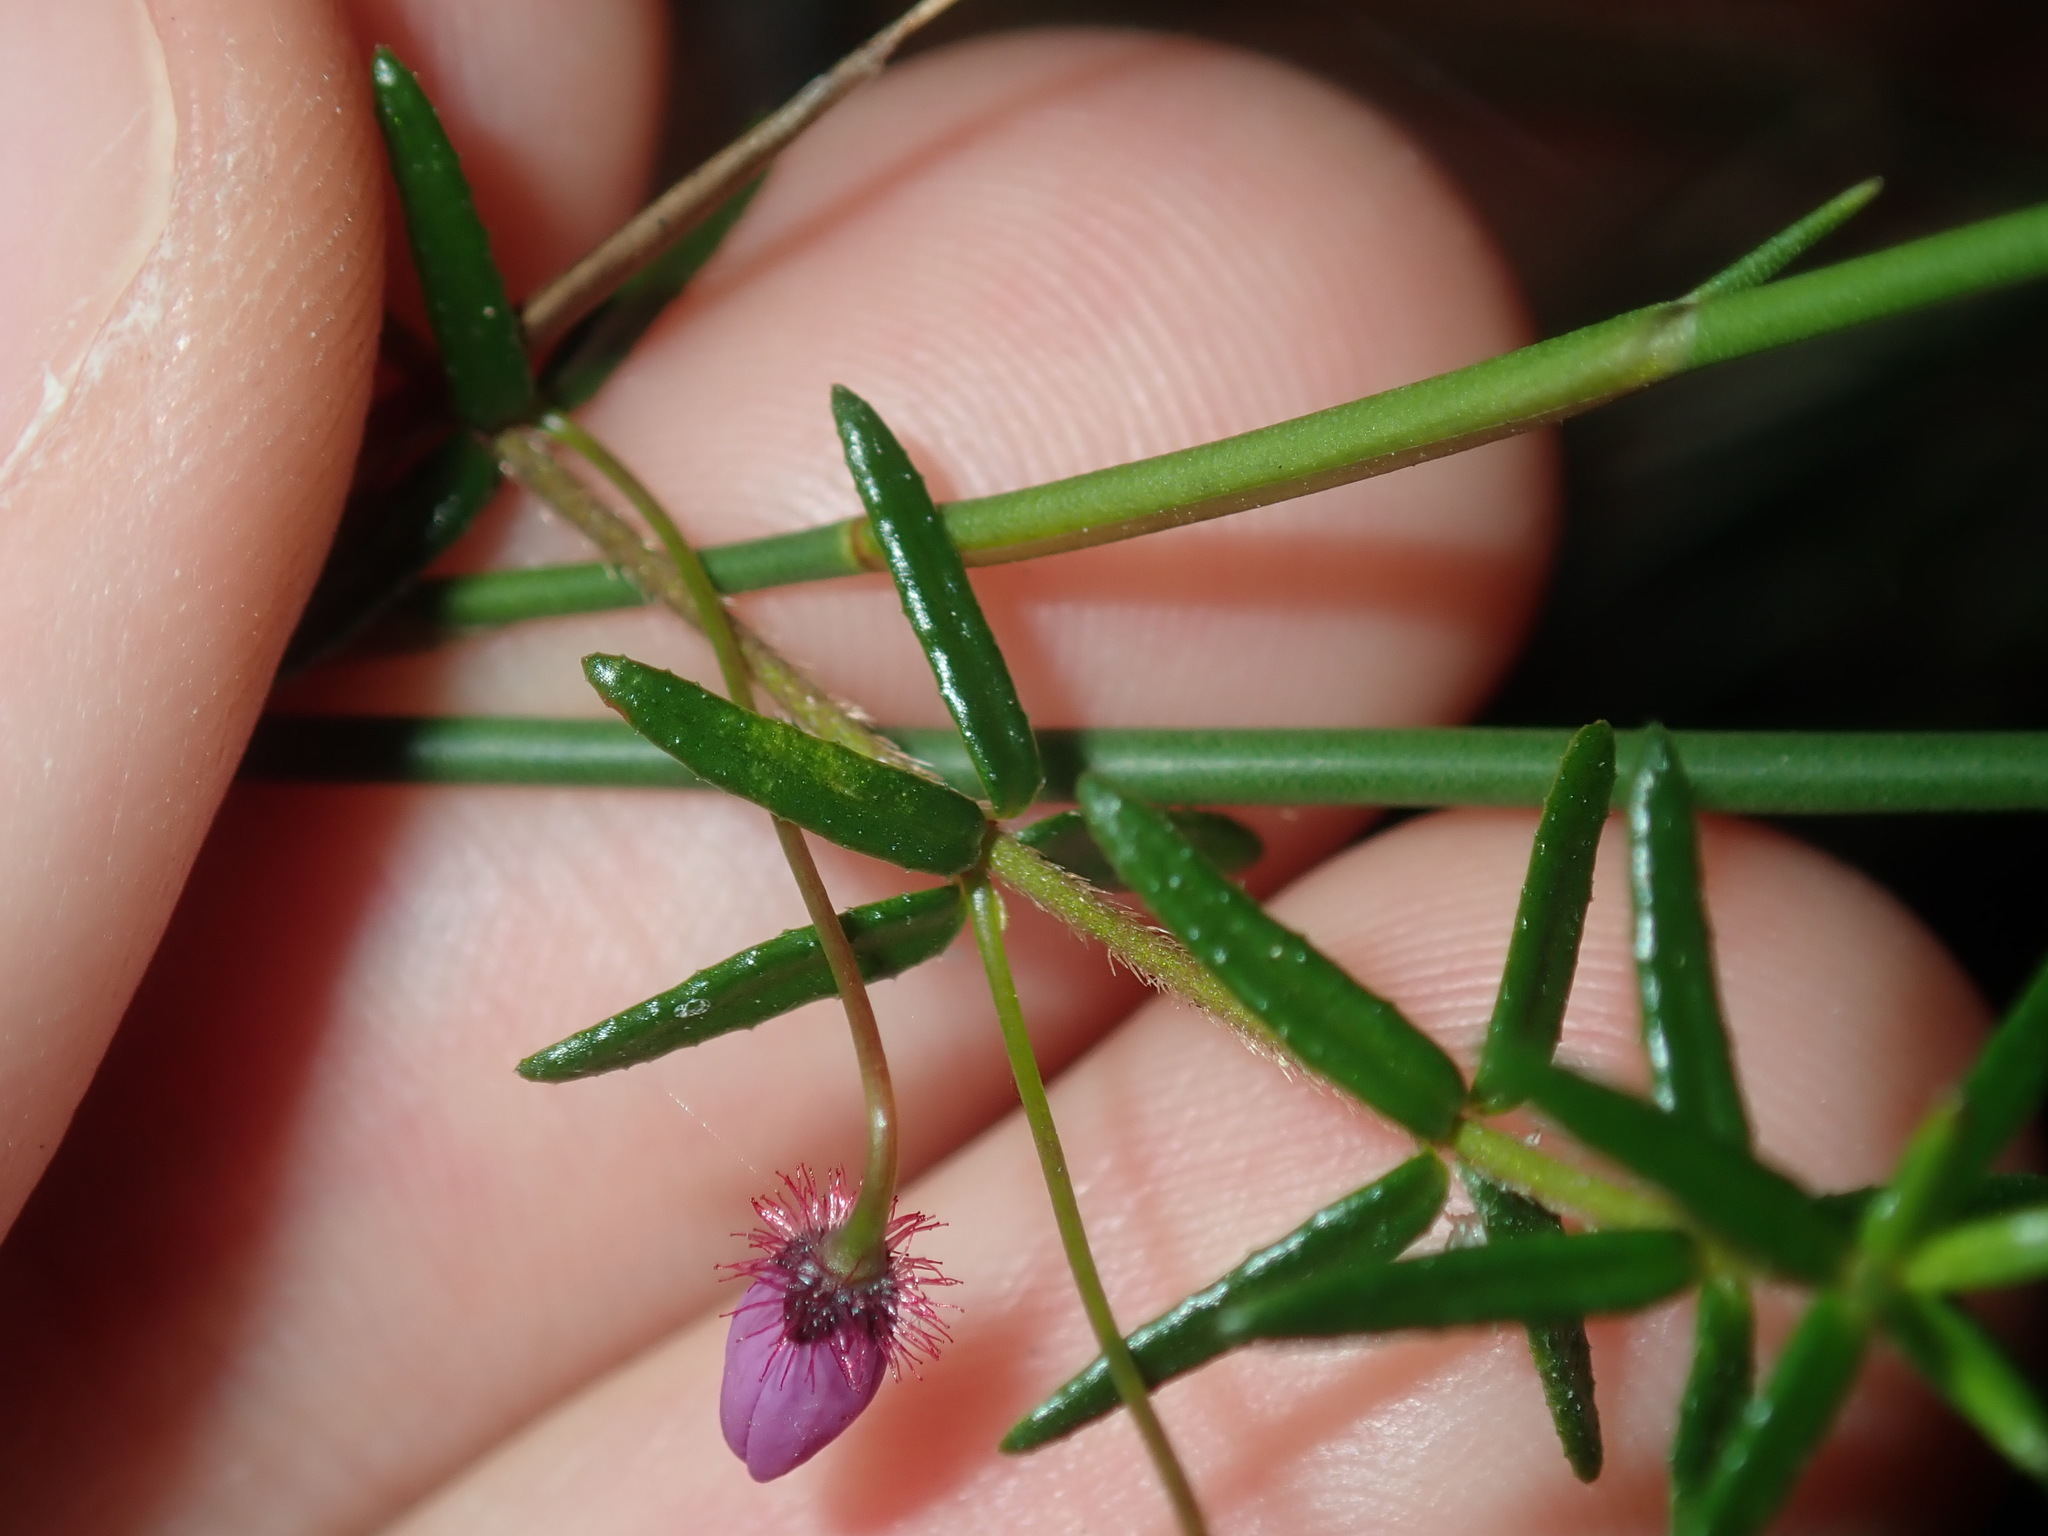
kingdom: Plantae
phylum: Tracheophyta
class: Magnoliopsida
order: Oxalidales
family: Elaeocarpaceae
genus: Tetratheca
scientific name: Tetratheca ericifolia
